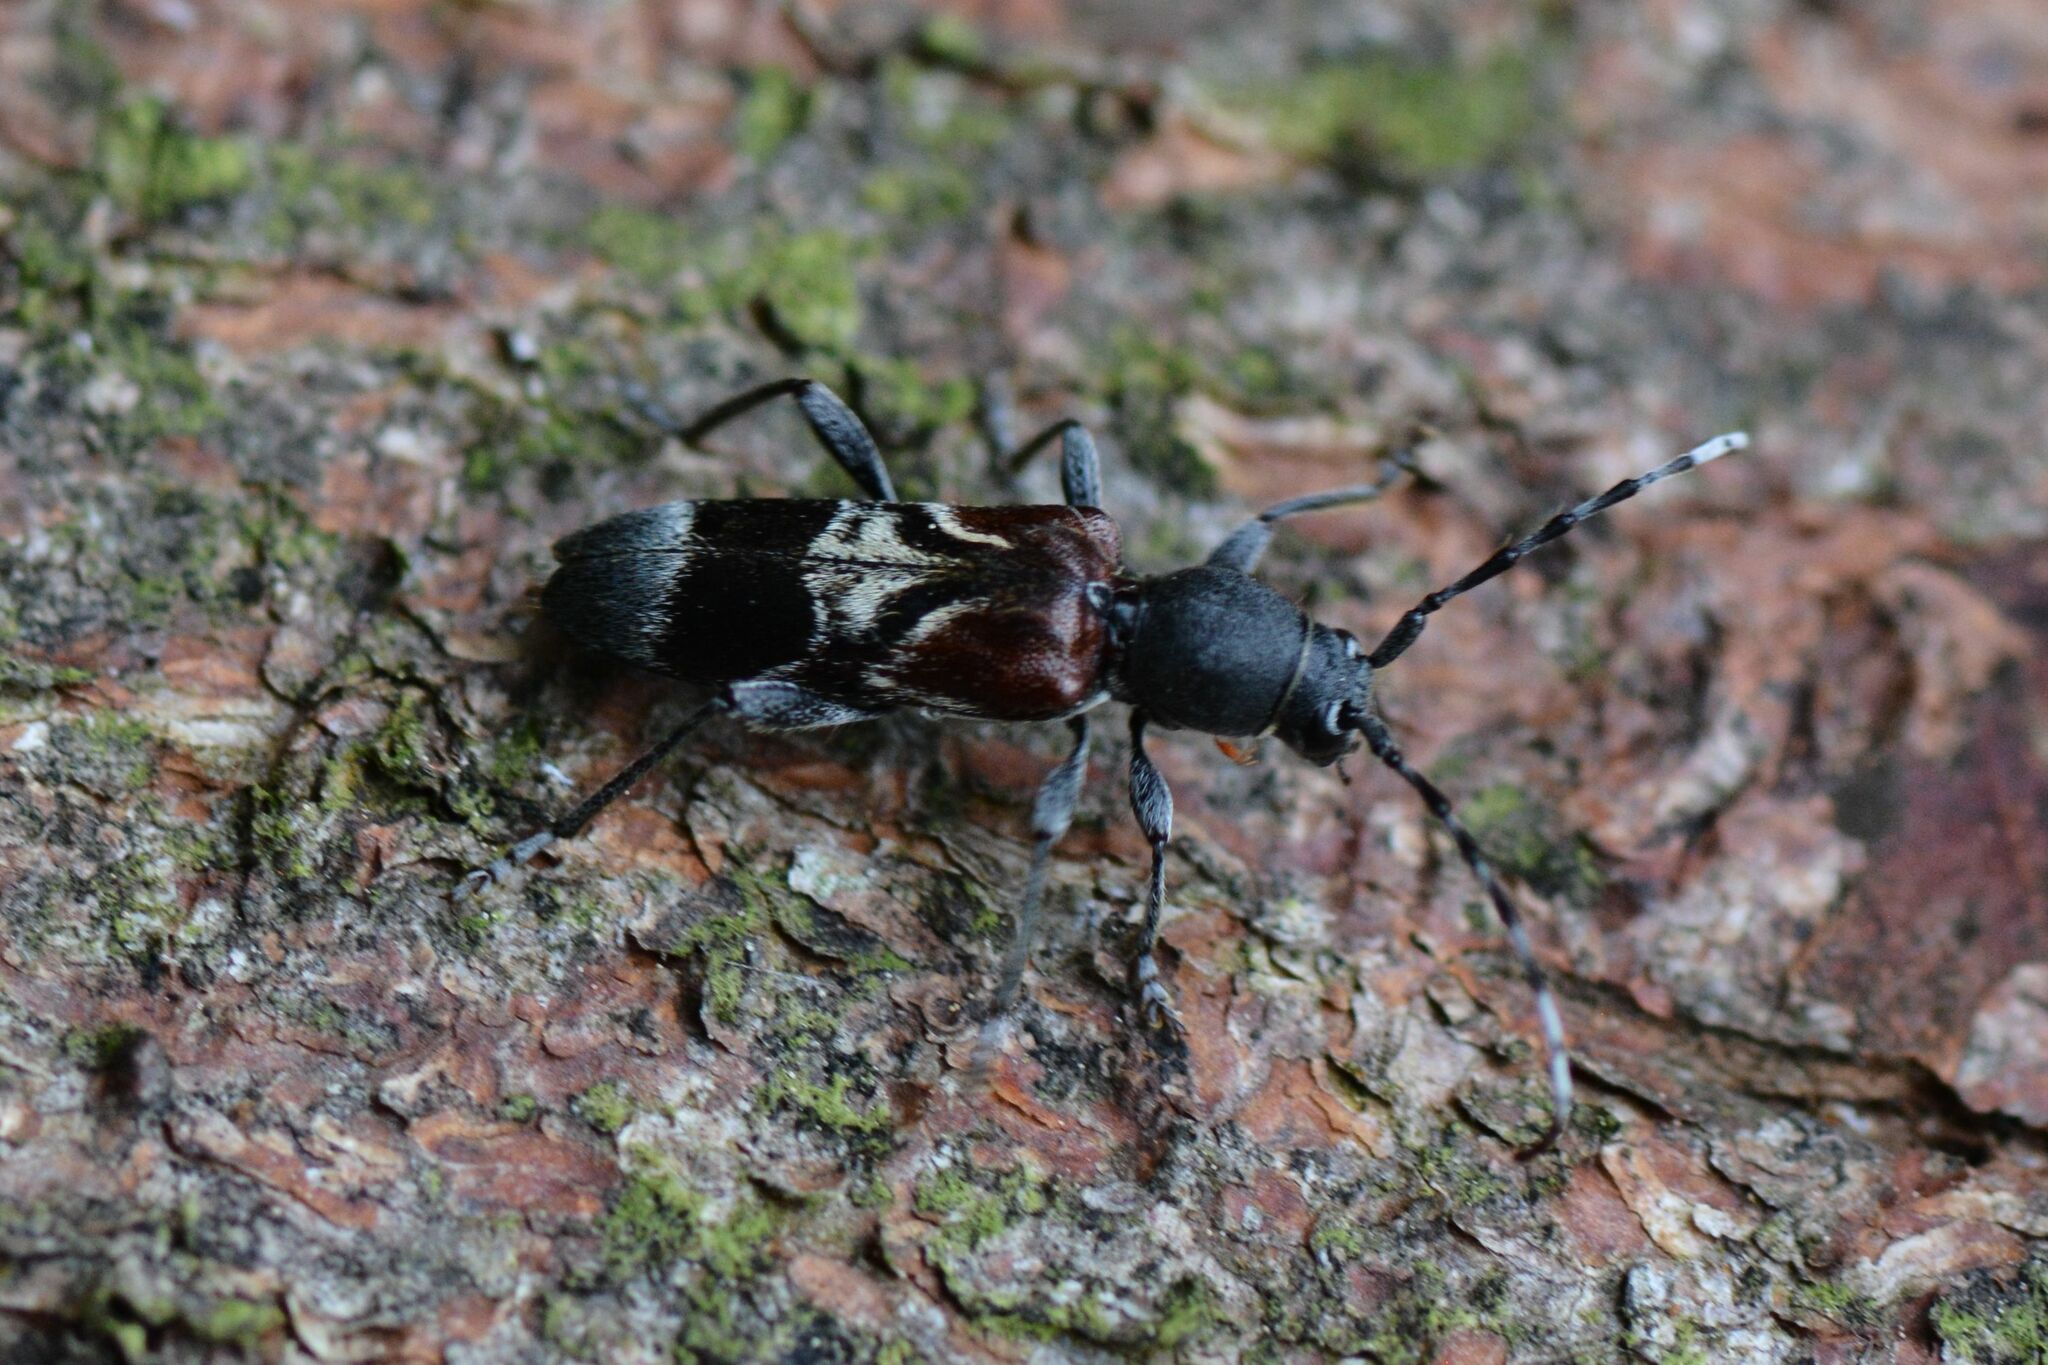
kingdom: Animalia
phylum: Arthropoda
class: Insecta
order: Coleoptera
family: Cerambycidae
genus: Anaglyptus
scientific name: Anaglyptus mysticus
